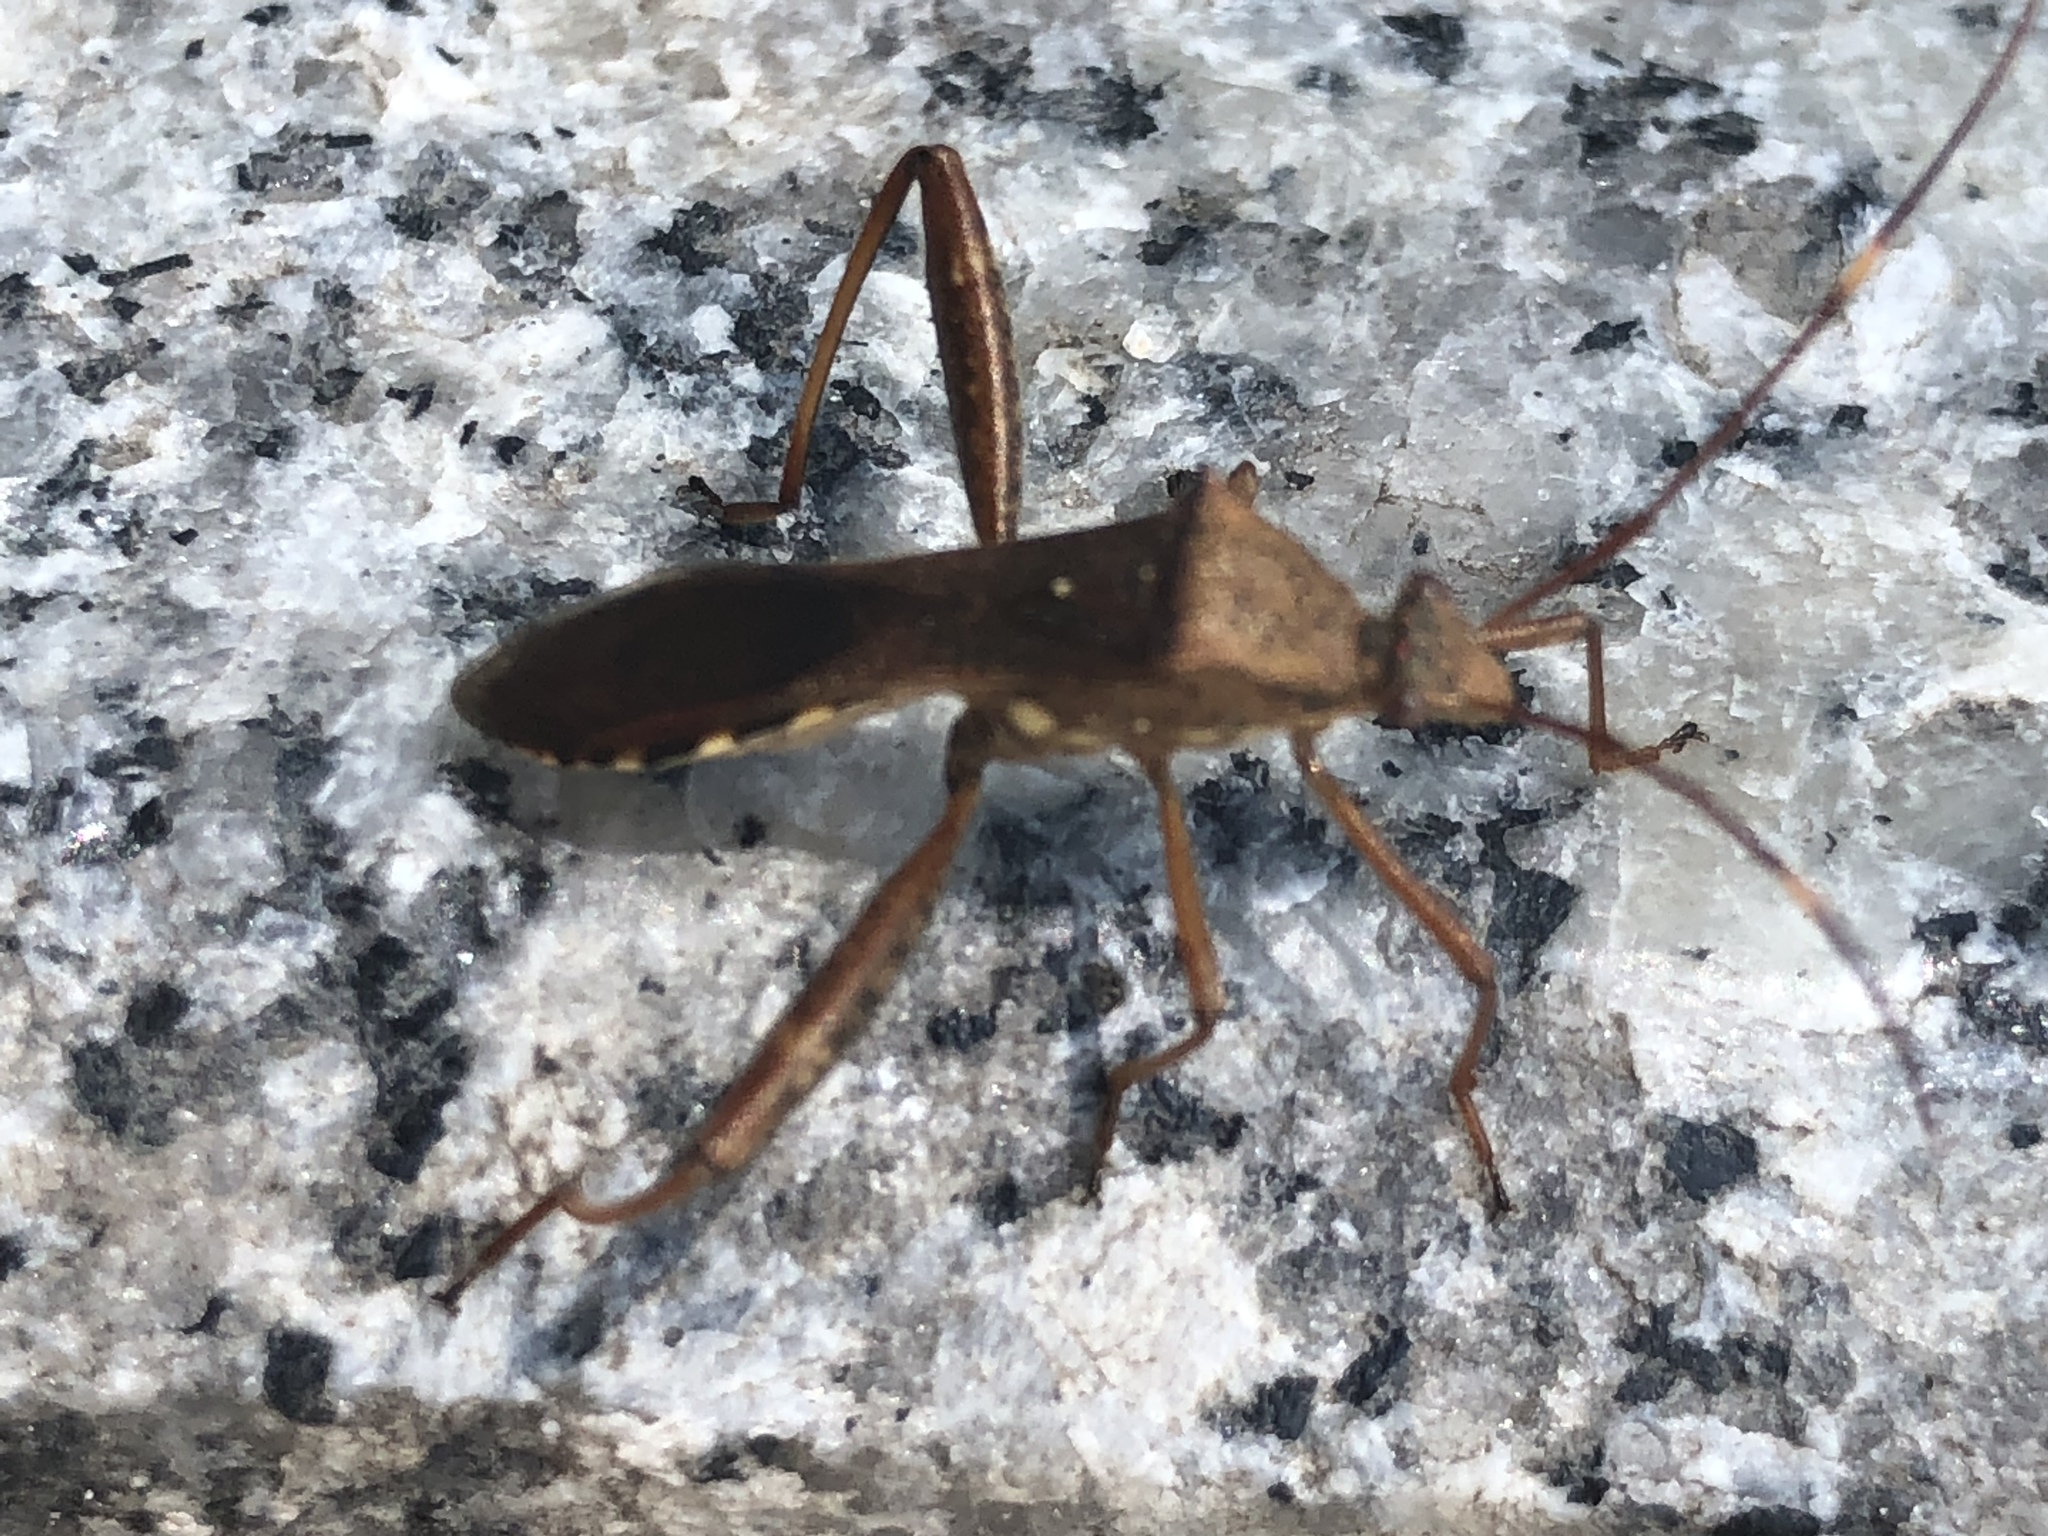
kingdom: Animalia
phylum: Arthropoda
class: Insecta
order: Hemiptera
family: Alydidae
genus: Riptortus
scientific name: Riptortus pedestris
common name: Bean bug
